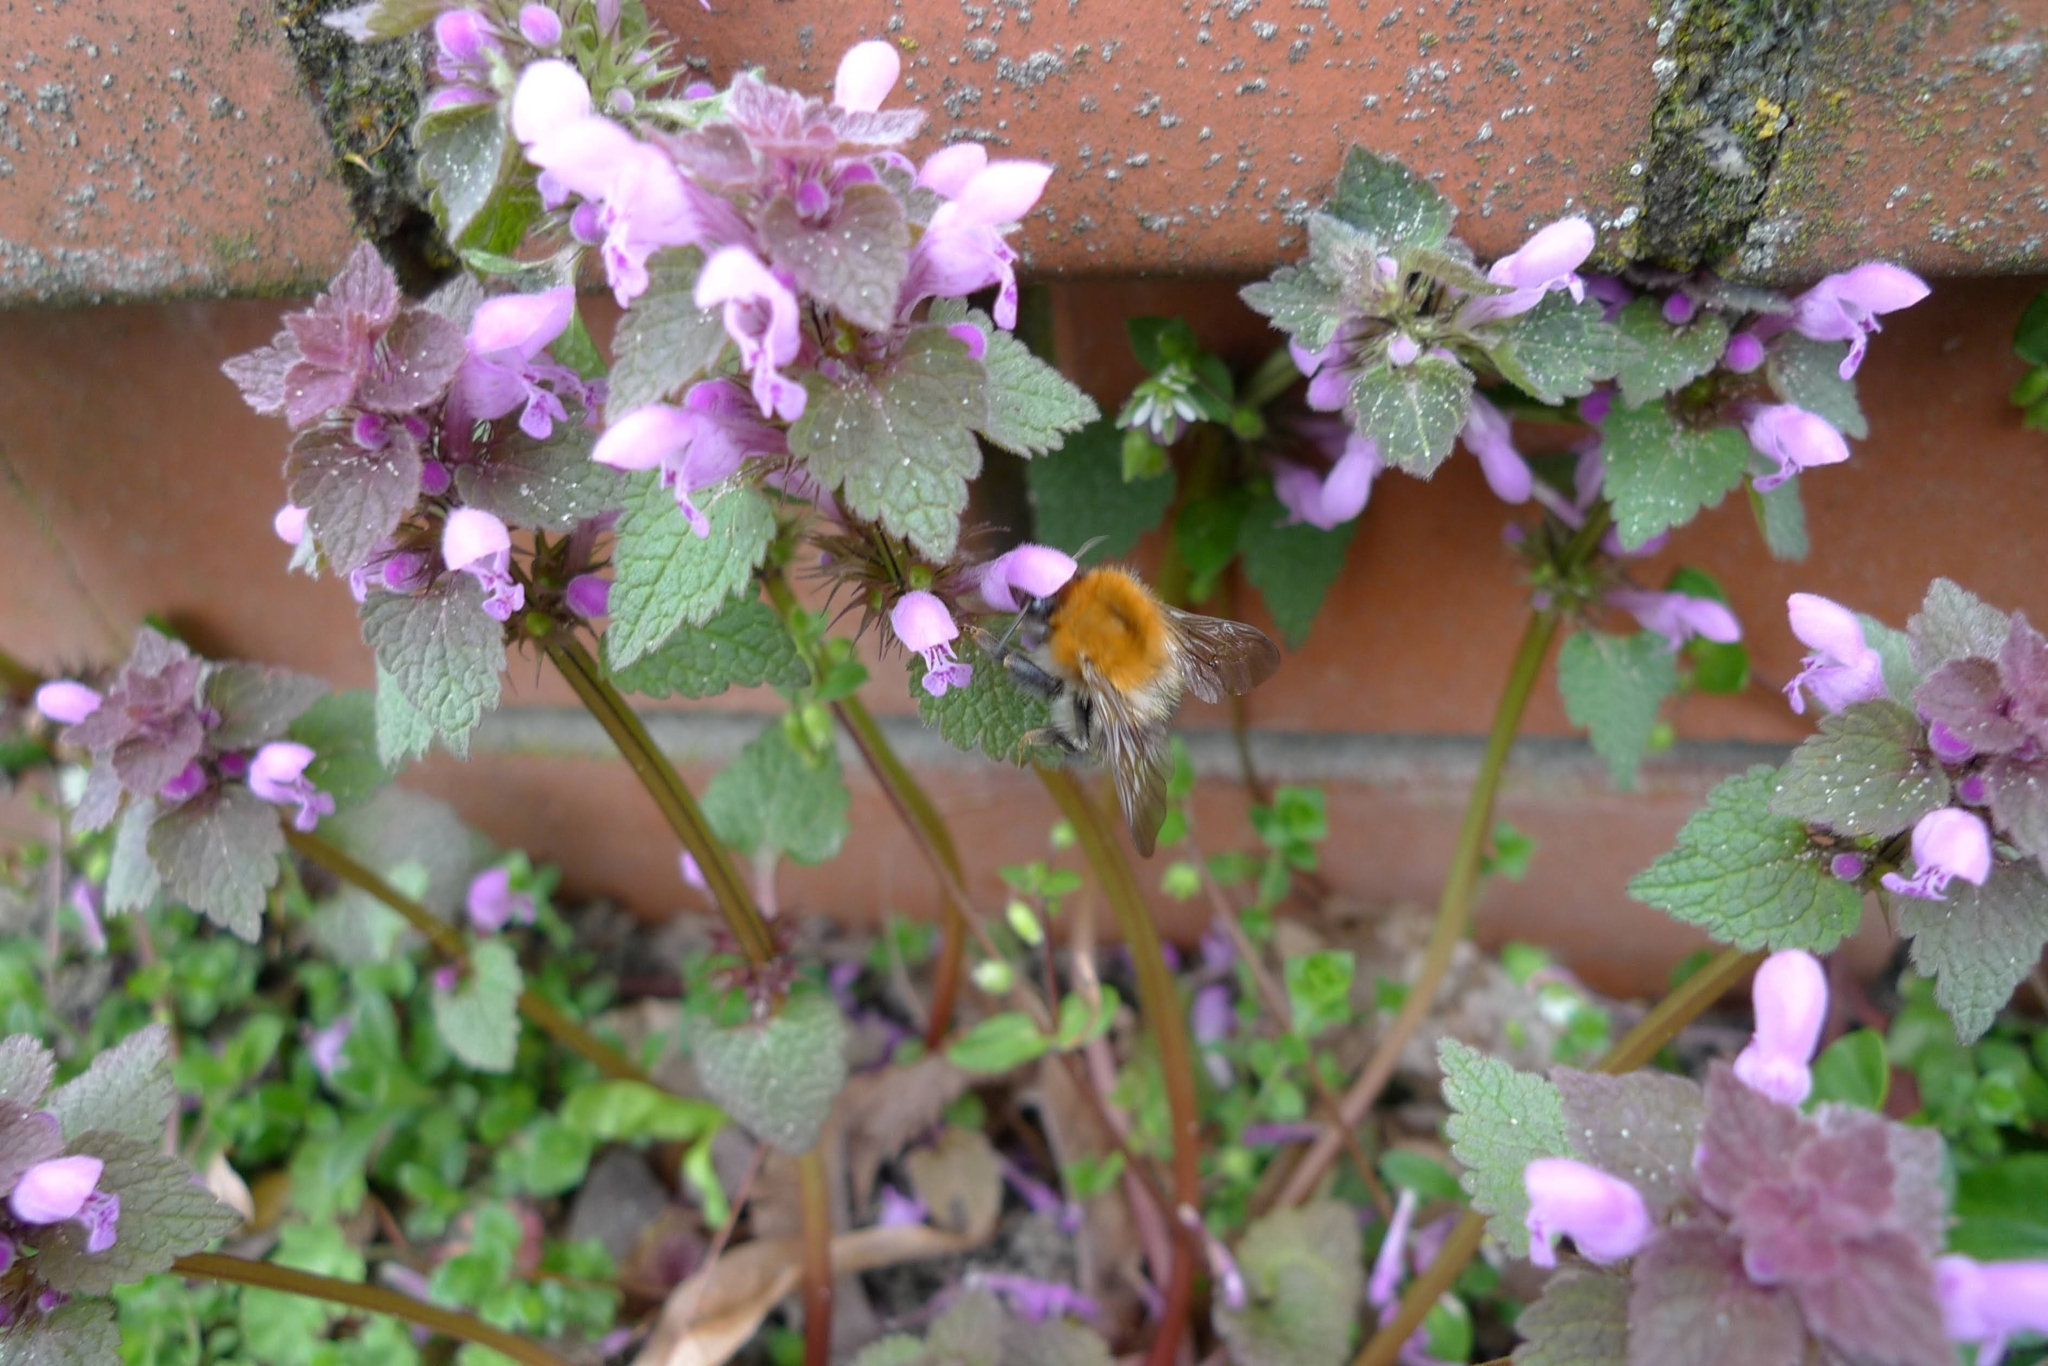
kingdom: Plantae
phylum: Tracheophyta
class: Magnoliopsida
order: Lamiales
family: Lamiaceae
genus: Lamium
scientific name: Lamium purpureum
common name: Red dead-nettle
